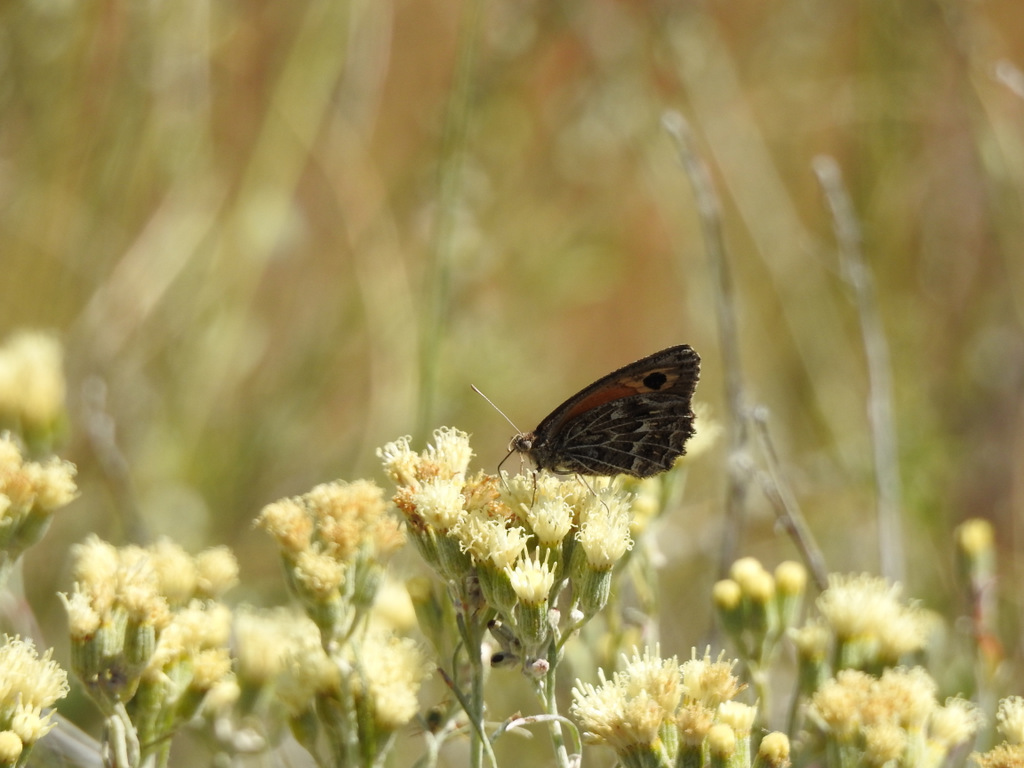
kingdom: Animalia
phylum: Arthropoda
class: Insecta
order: Lepidoptera
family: Nymphalidae
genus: Argyrophorus
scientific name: Argyrophorus
